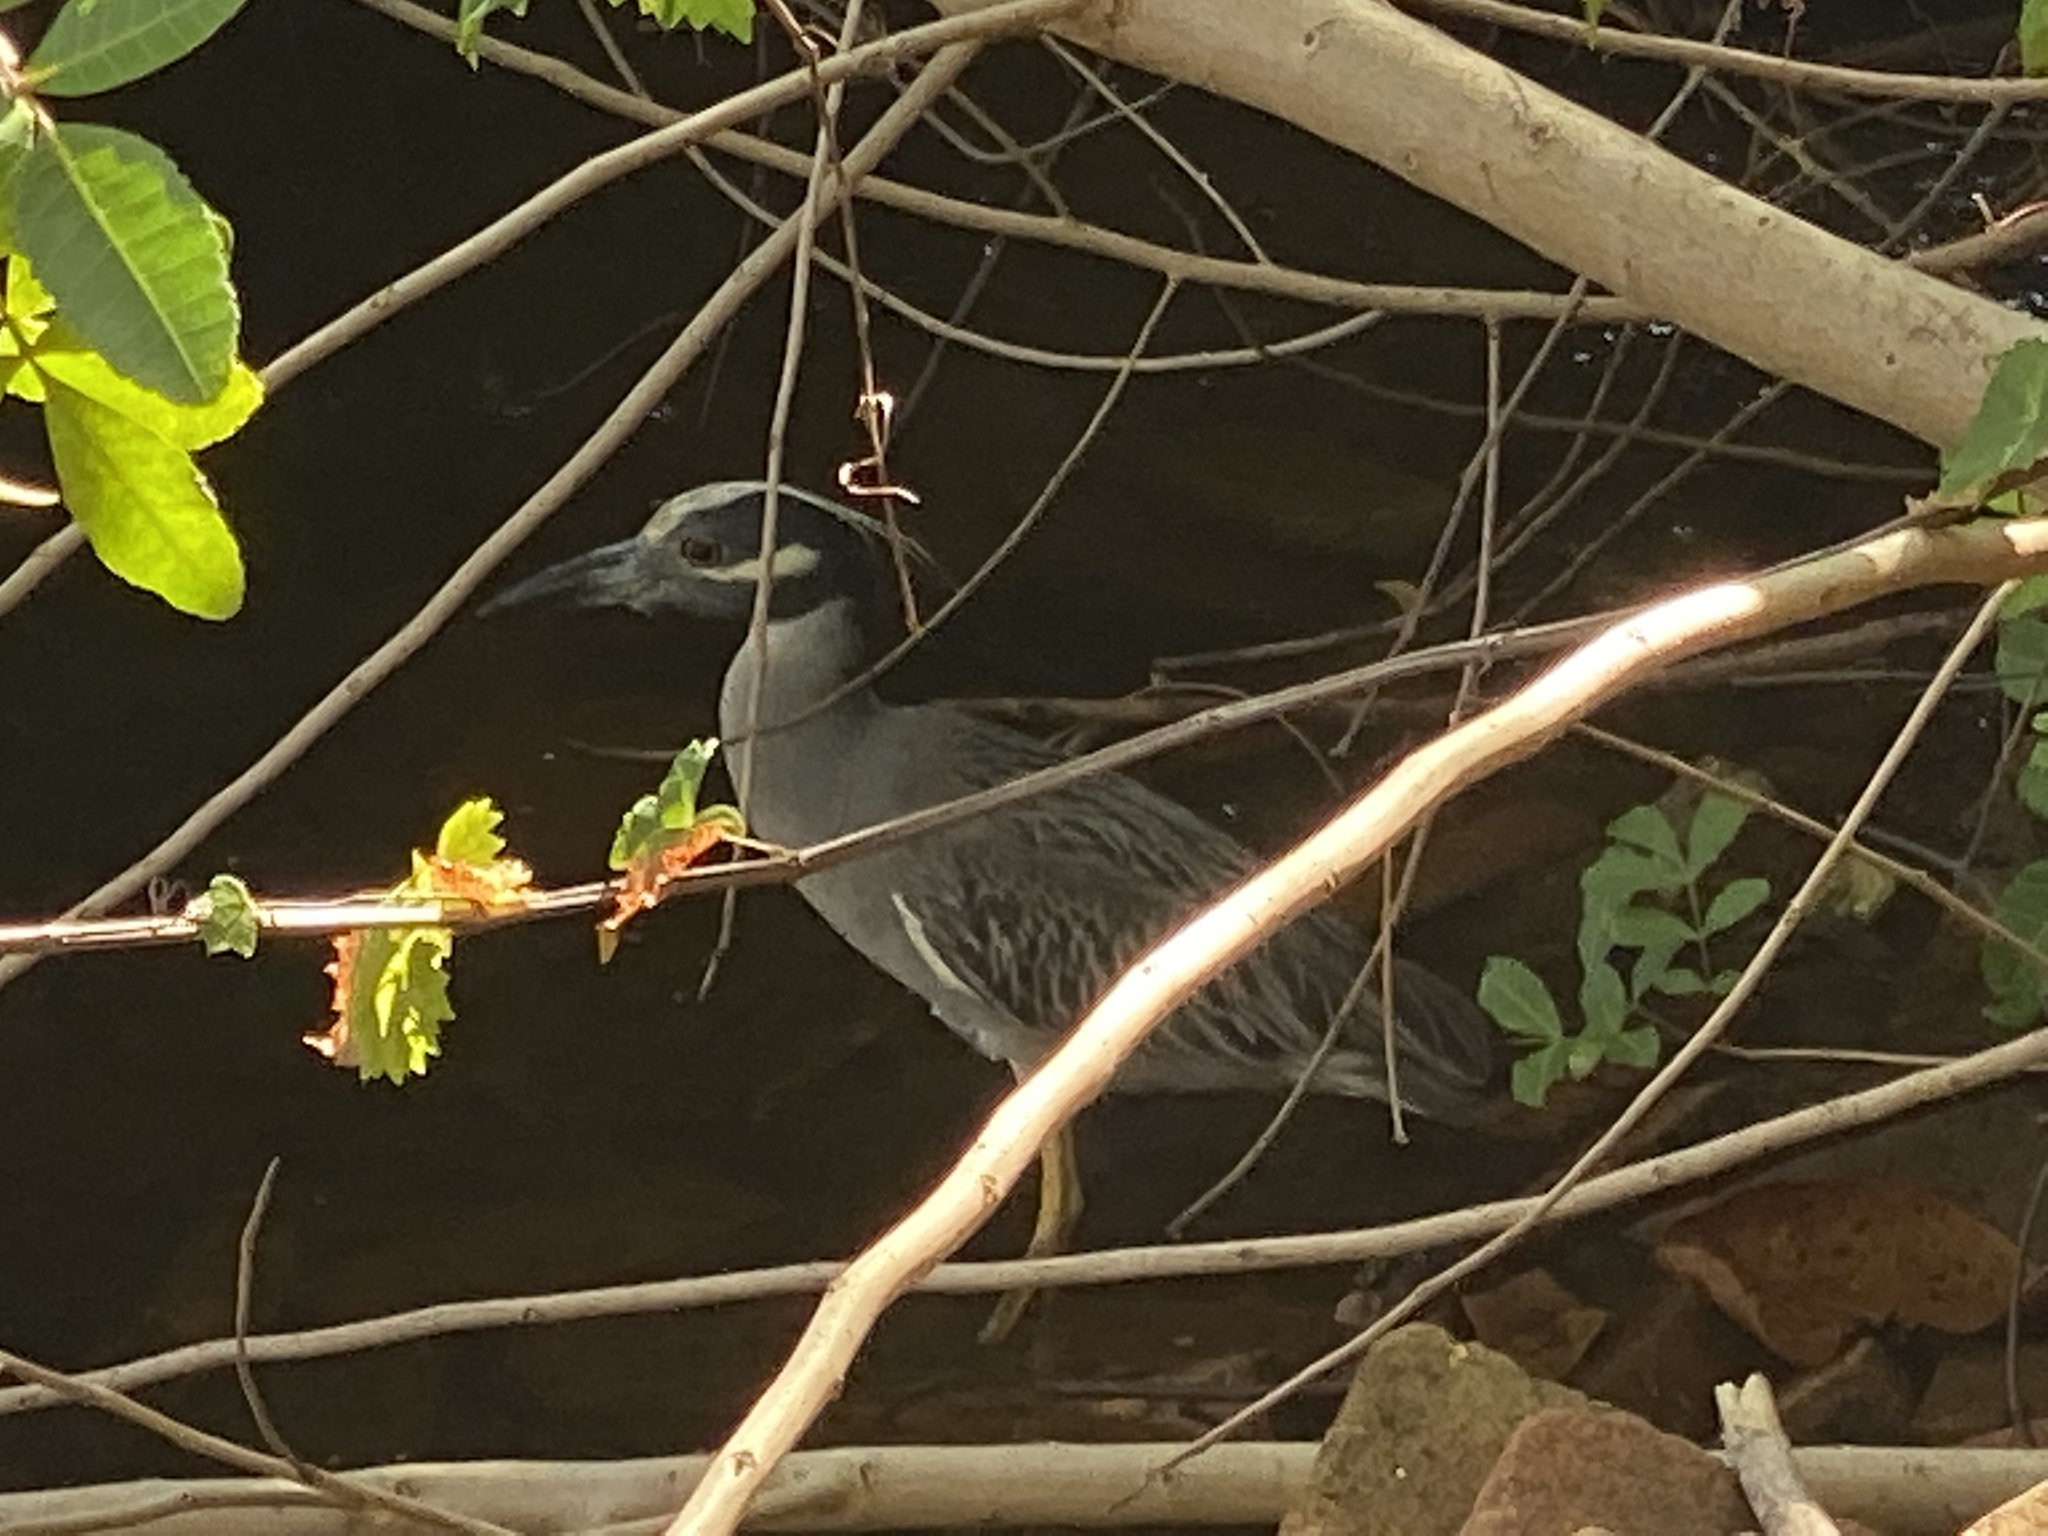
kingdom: Animalia
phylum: Chordata
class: Aves
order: Pelecaniformes
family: Ardeidae
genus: Nyctanassa
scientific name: Nyctanassa violacea
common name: Yellow-crowned night heron
